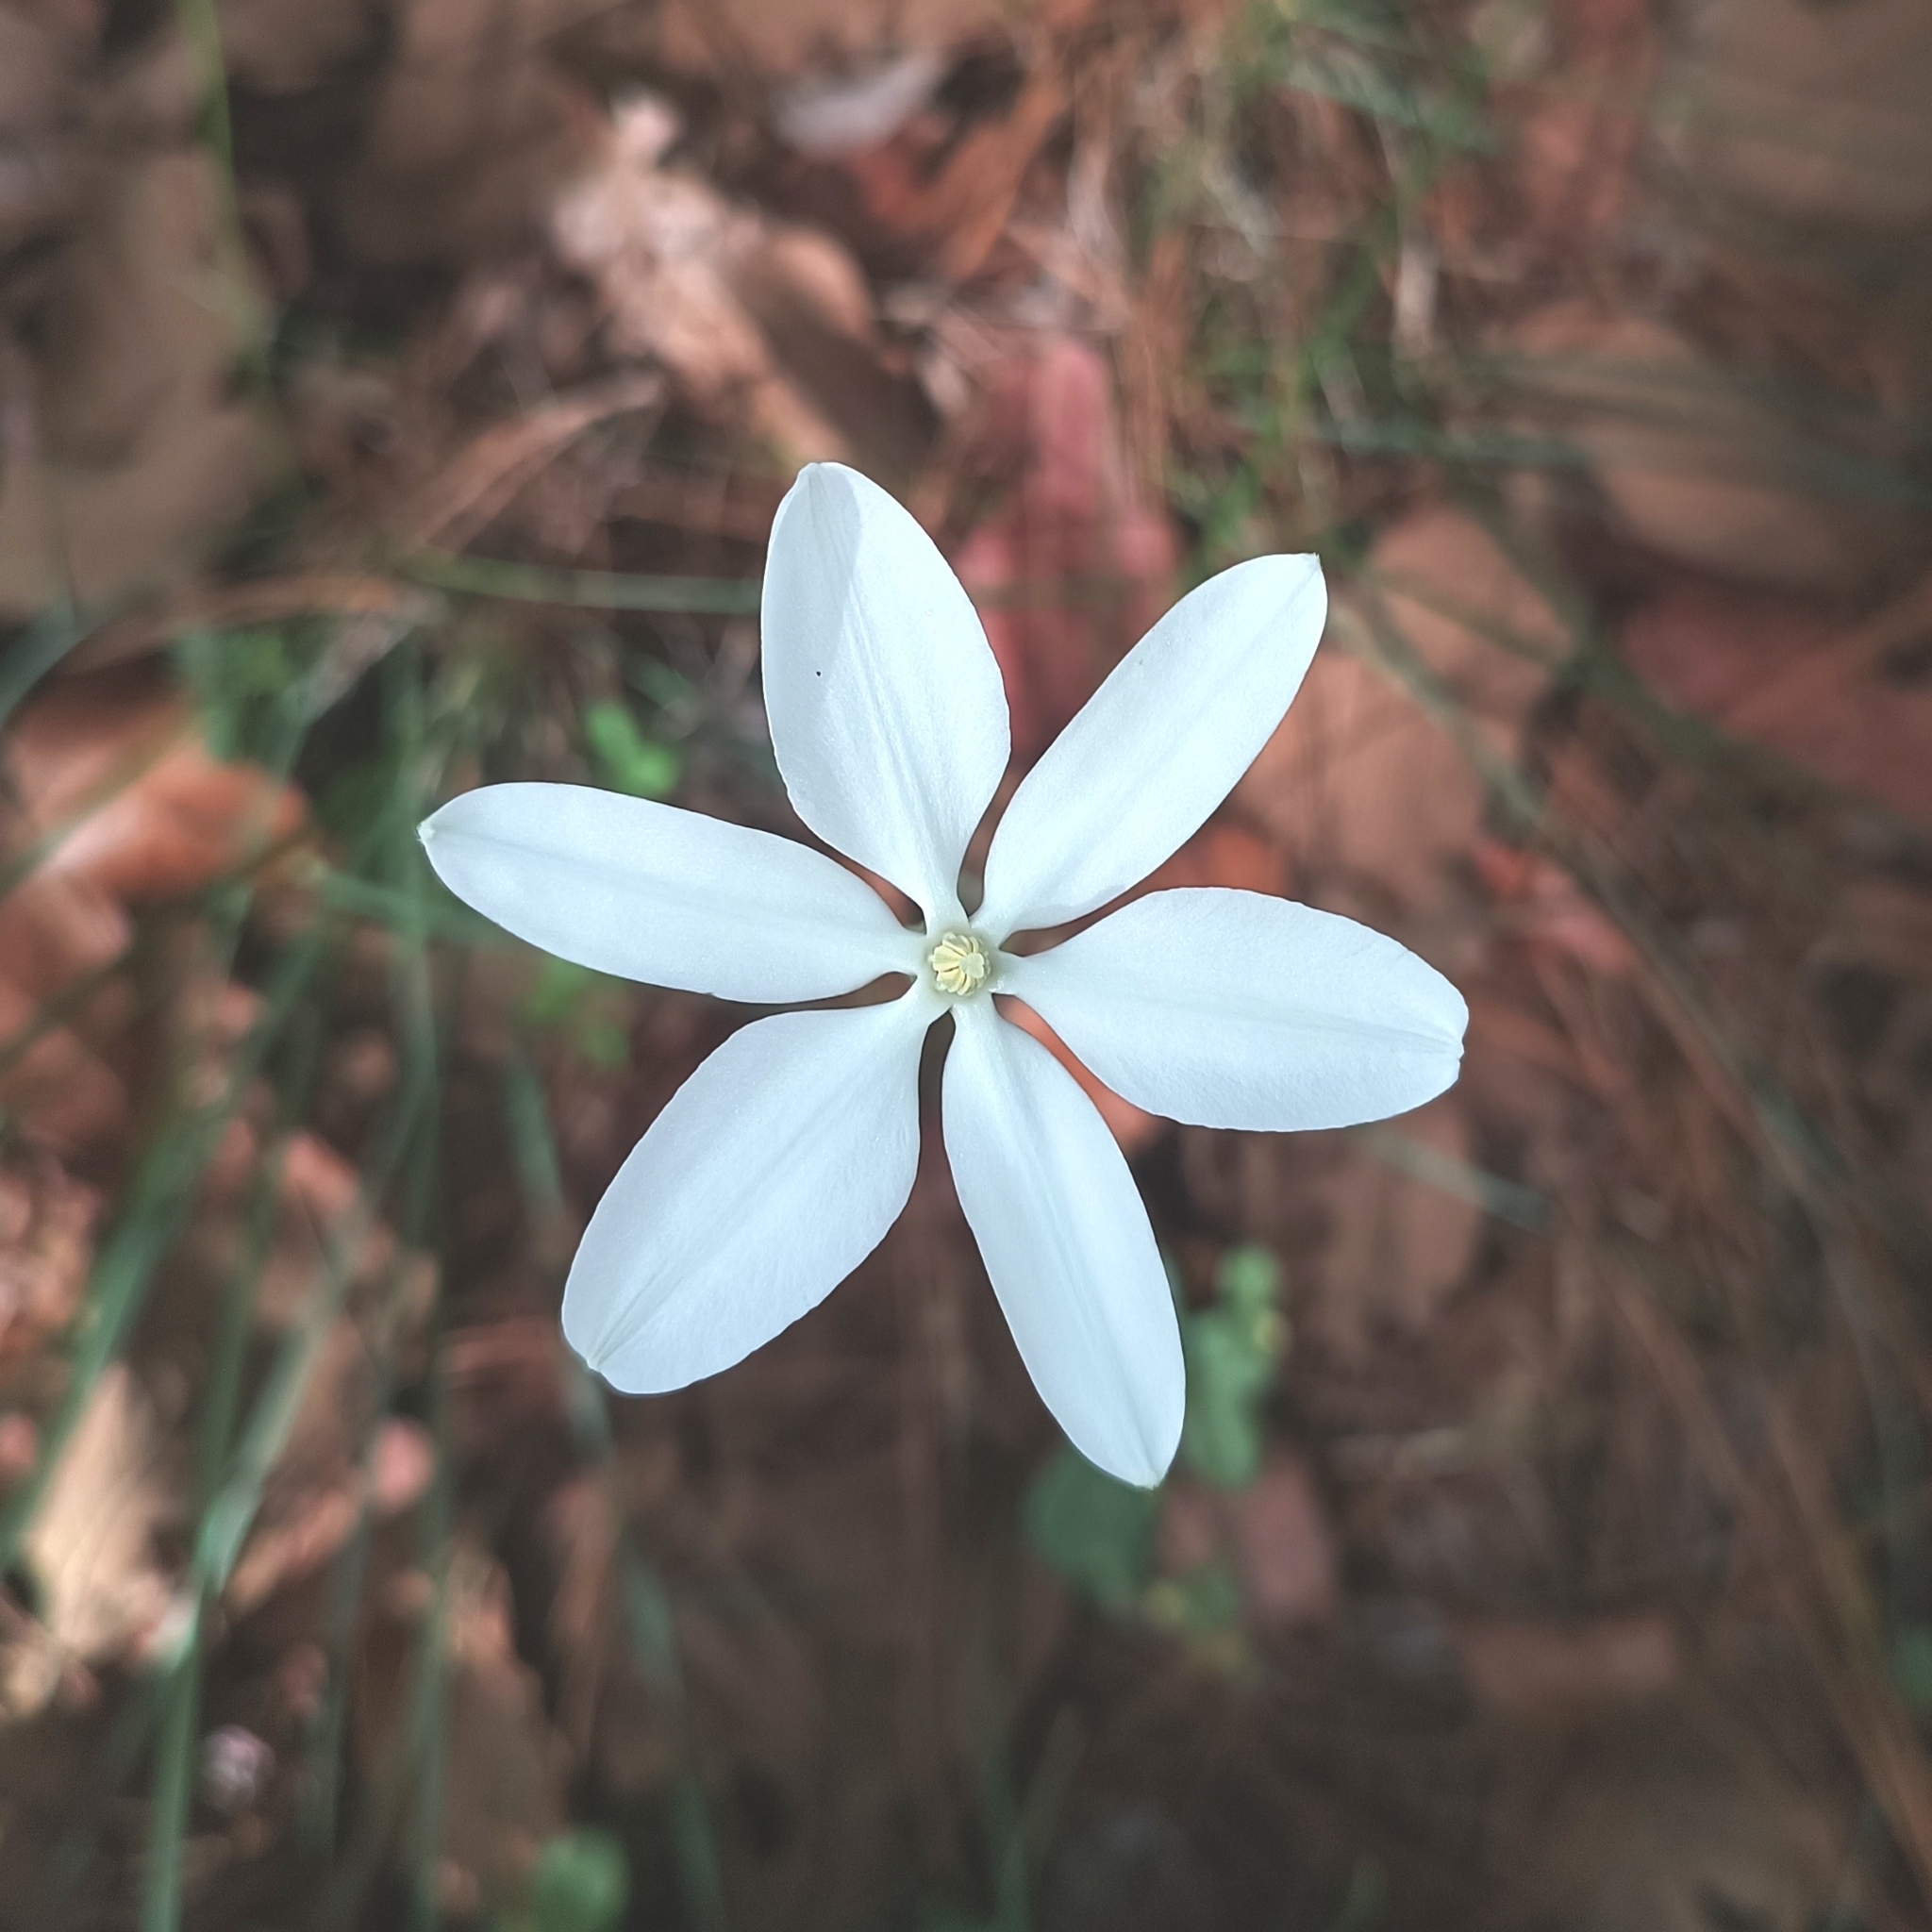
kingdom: Plantae
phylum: Tracheophyta
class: Liliopsida
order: Asparagales
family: Asparagaceae
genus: Milla
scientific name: Milla biflora
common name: Mexican-star
